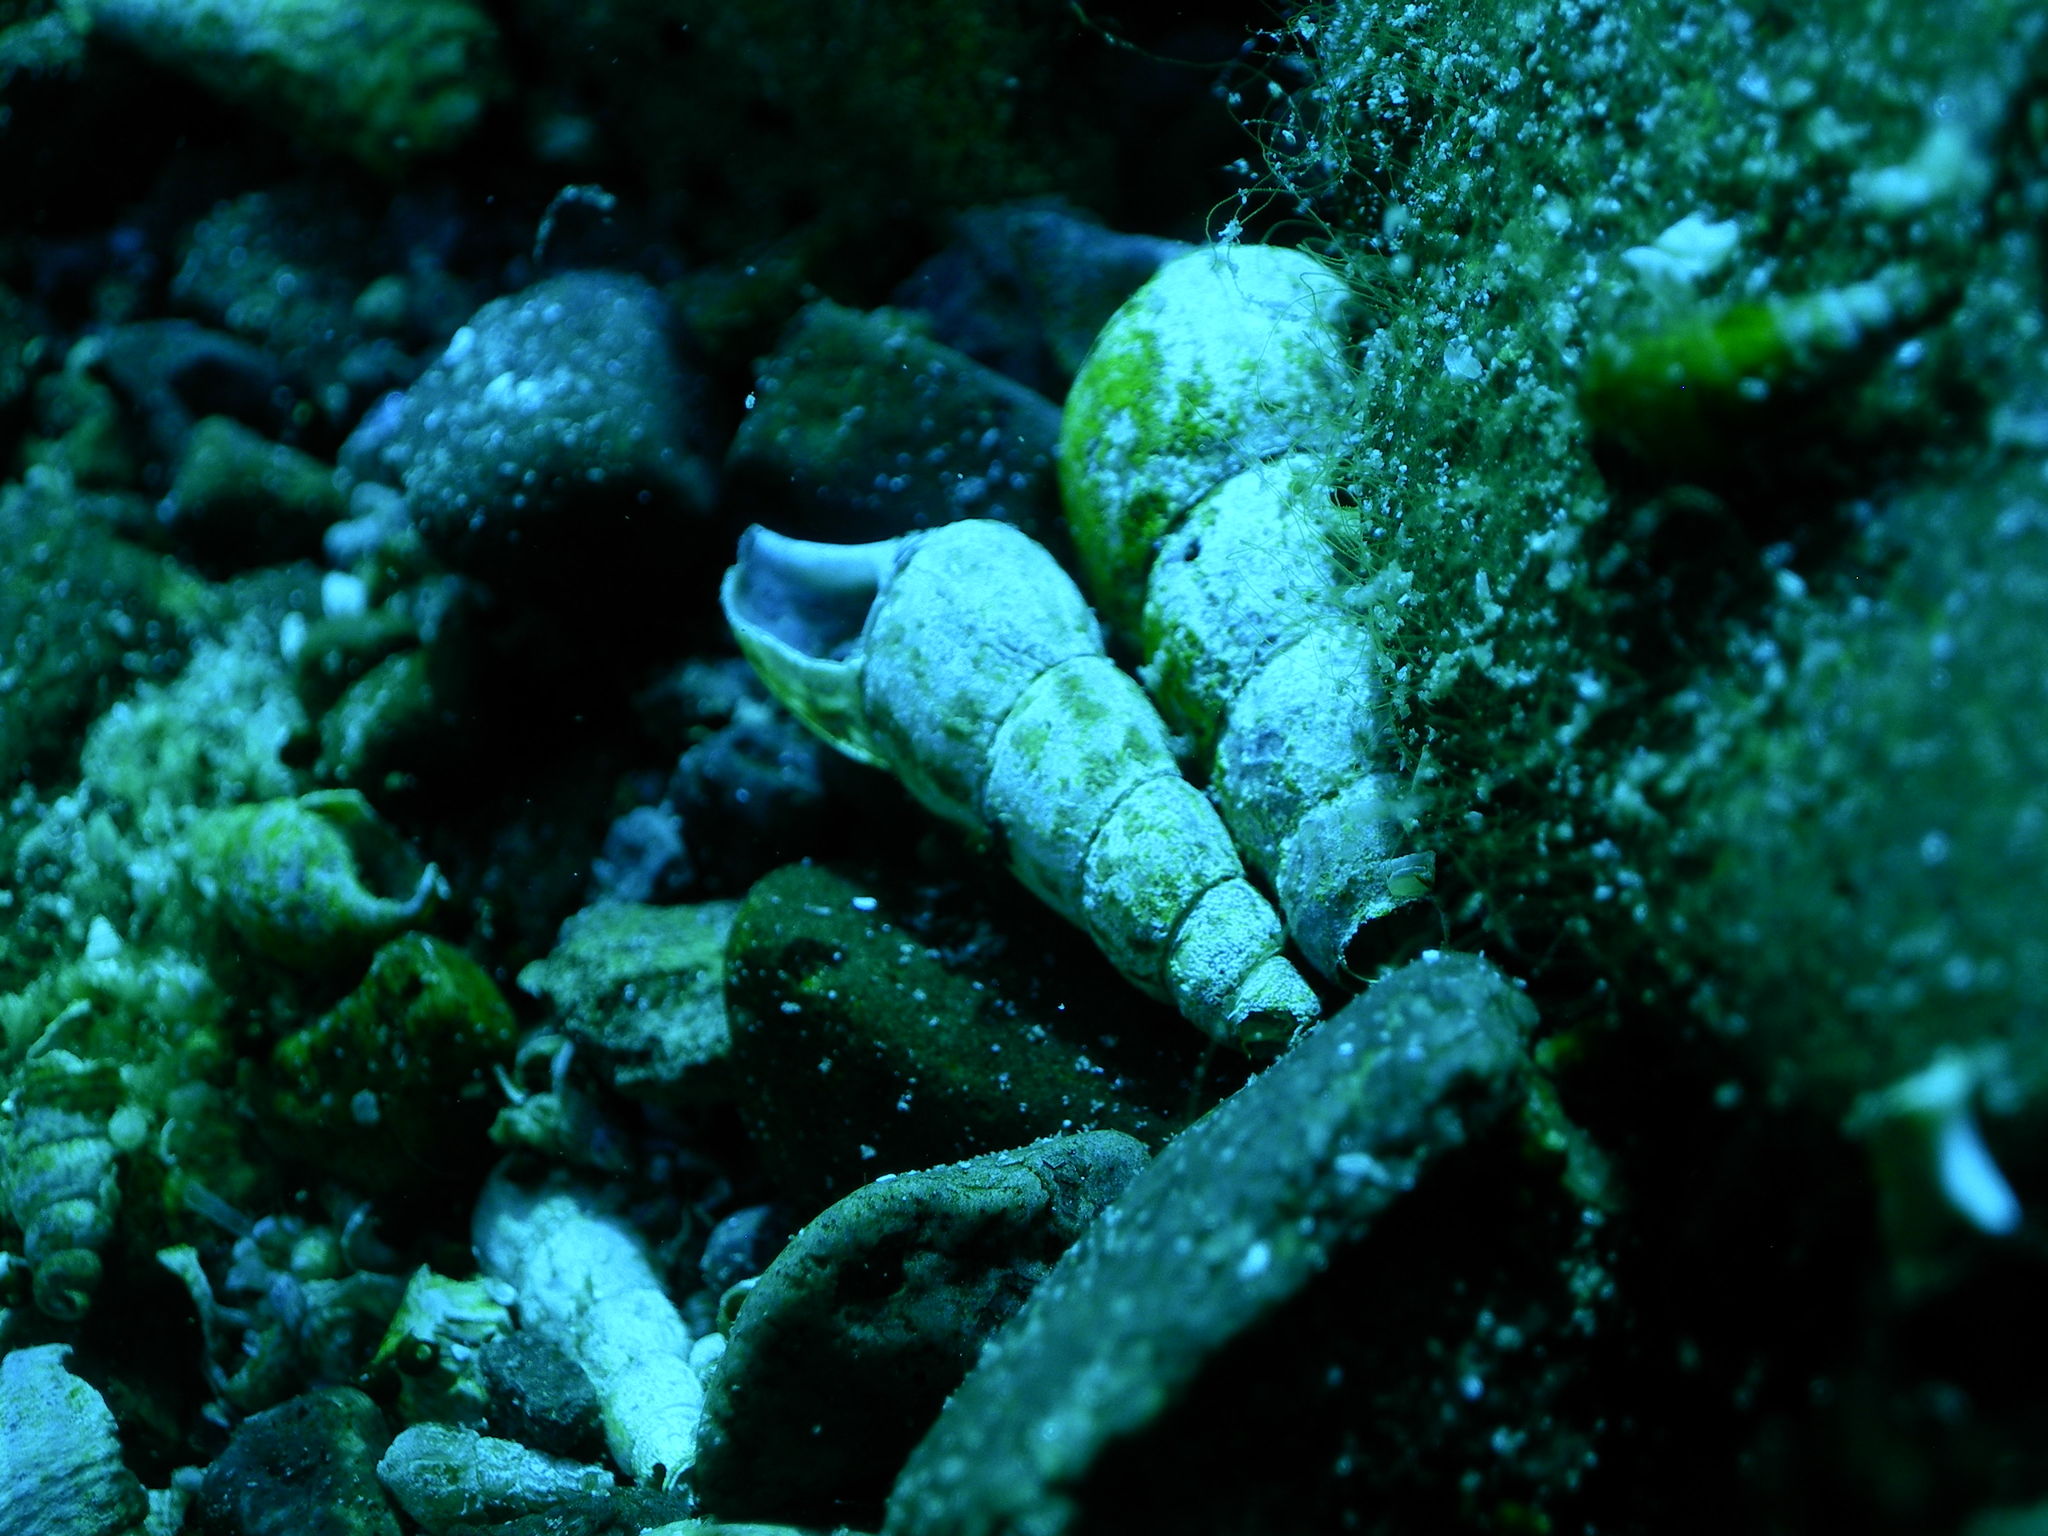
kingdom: Animalia
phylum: Mollusca
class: Gastropoda
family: Thiaridae
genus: Melanoides
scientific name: Melanoides tuberculata
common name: Red-rim melania
